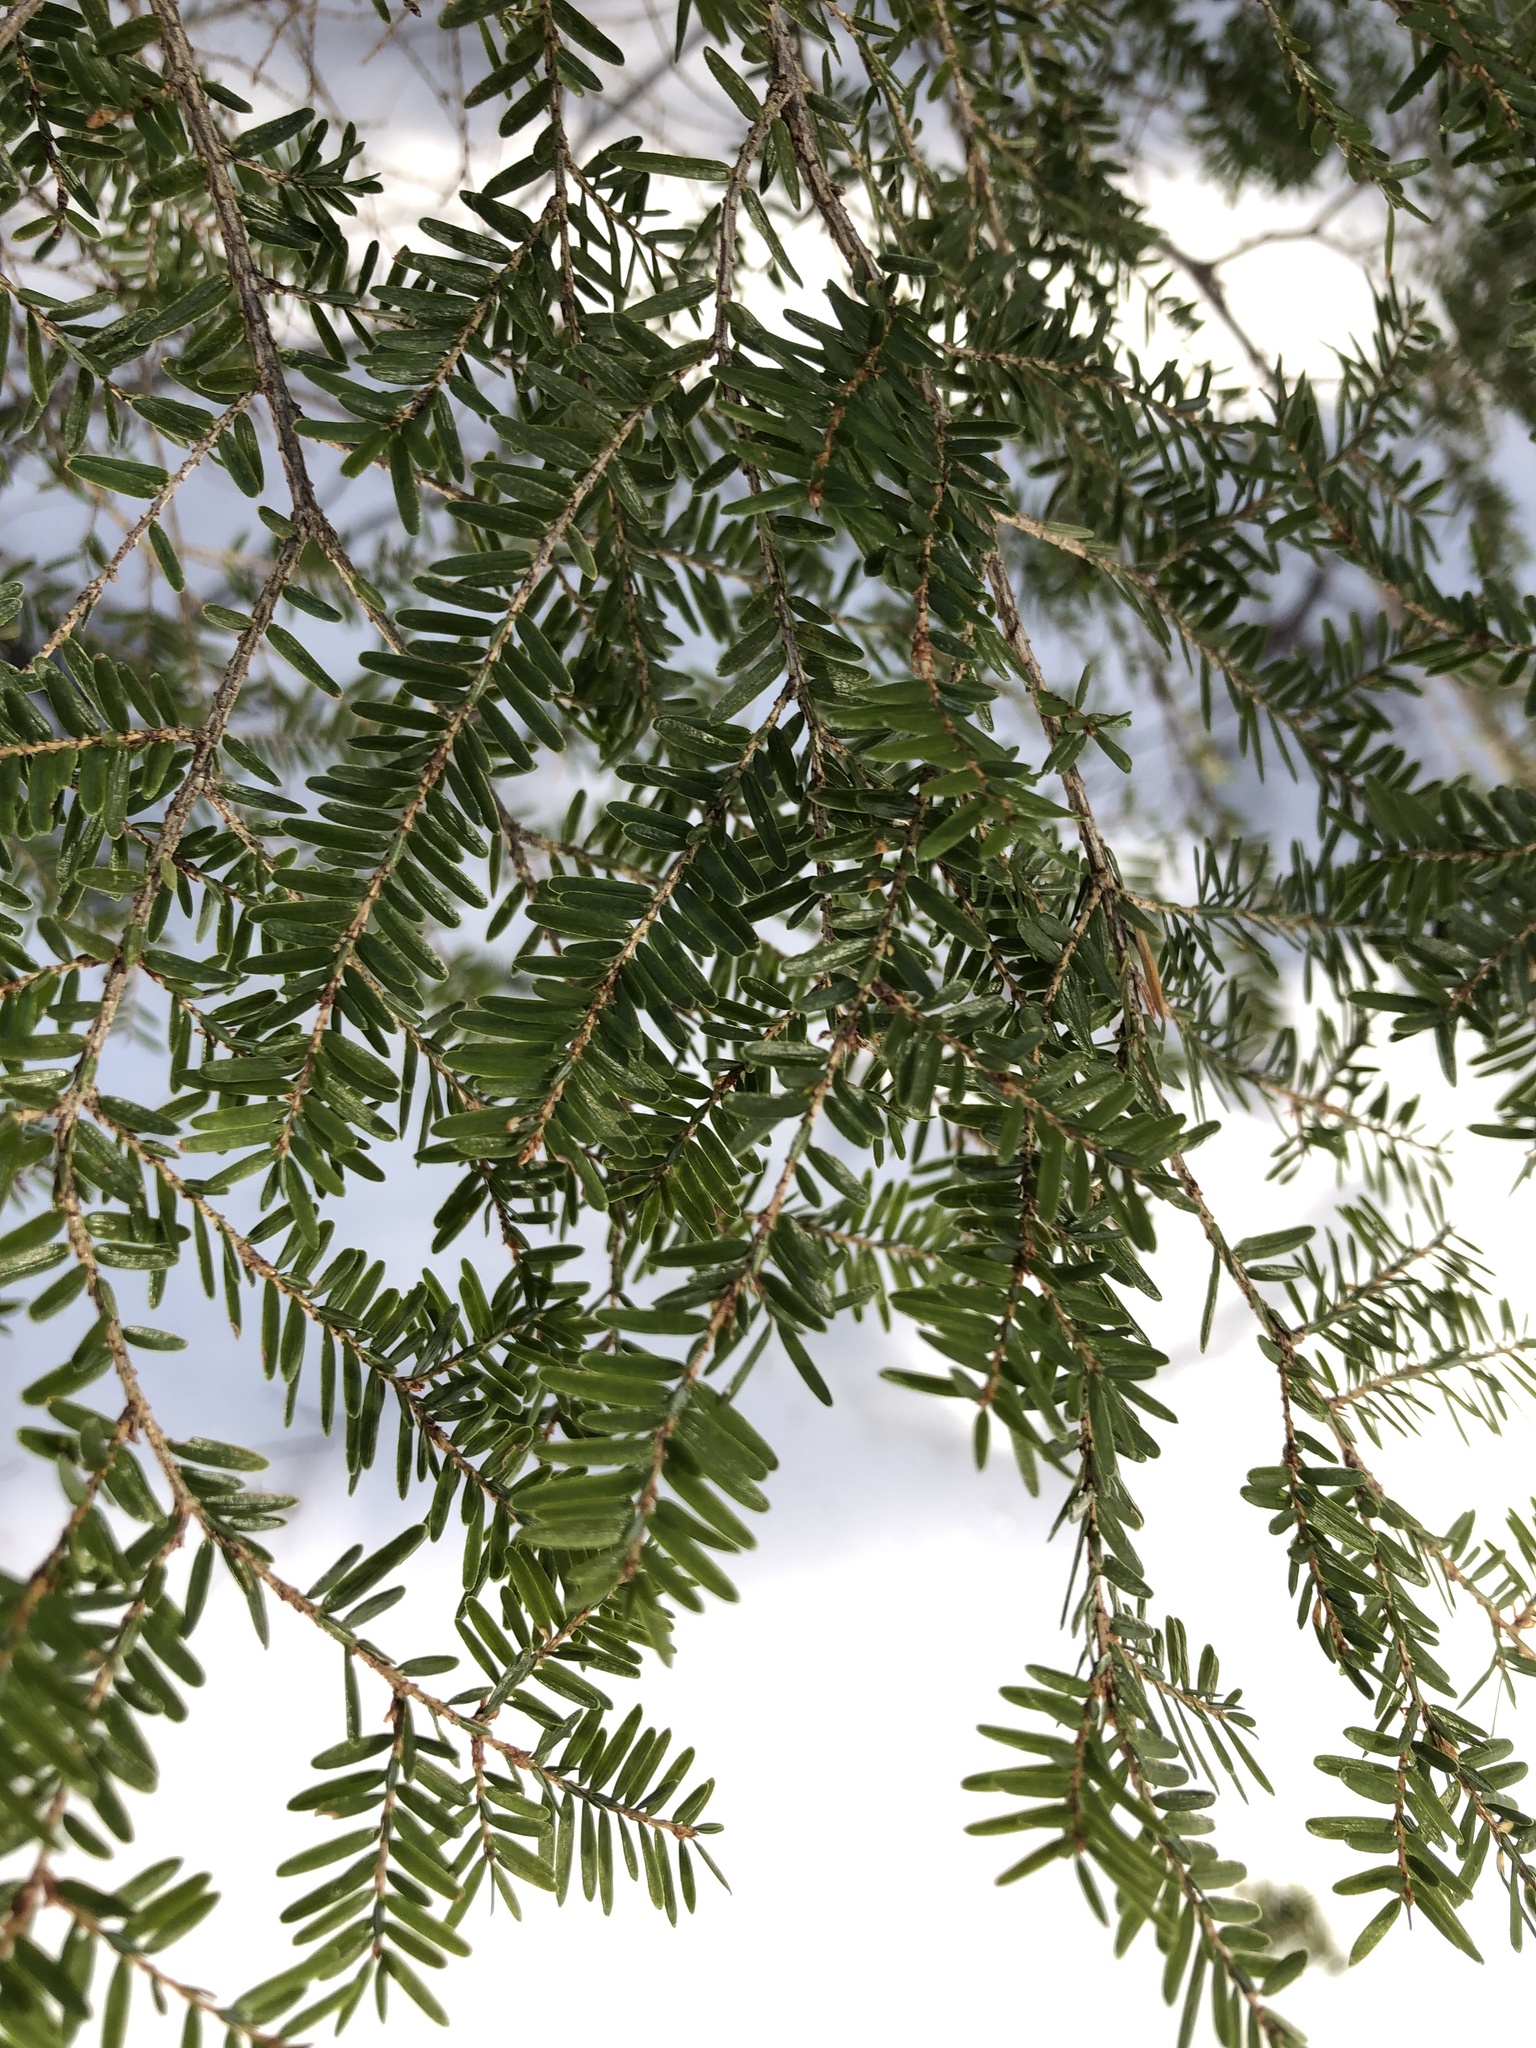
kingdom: Plantae
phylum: Tracheophyta
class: Pinopsida
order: Pinales
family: Pinaceae
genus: Tsuga
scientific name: Tsuga canadensis
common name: Eastern hemlock
